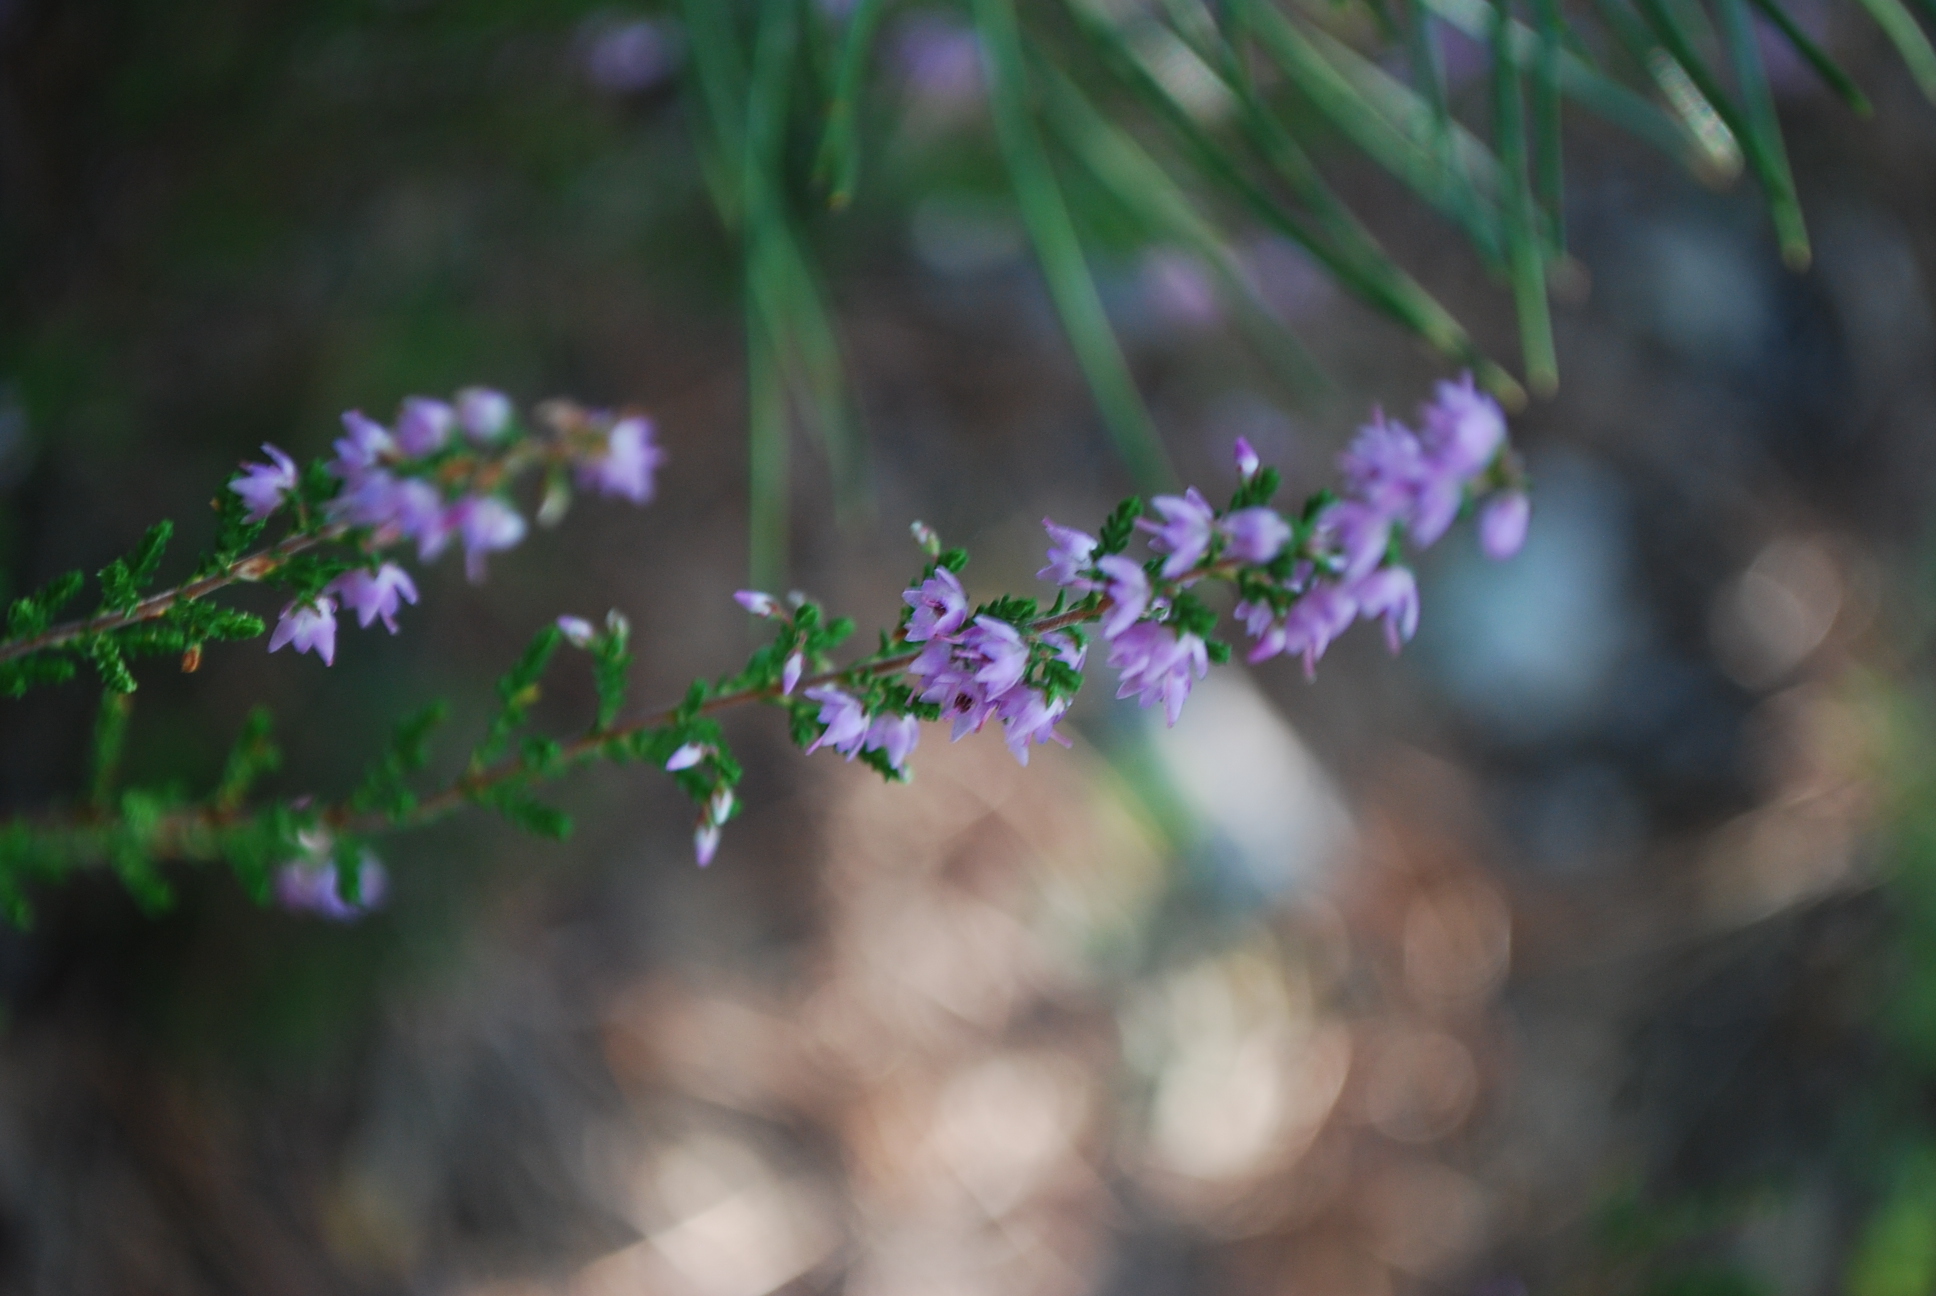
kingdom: Plantae
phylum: Tracheophyta
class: Magnoliopsida
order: Ericales
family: Ericaceae
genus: Calluna
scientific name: Calluna vulgaris
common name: Heather
